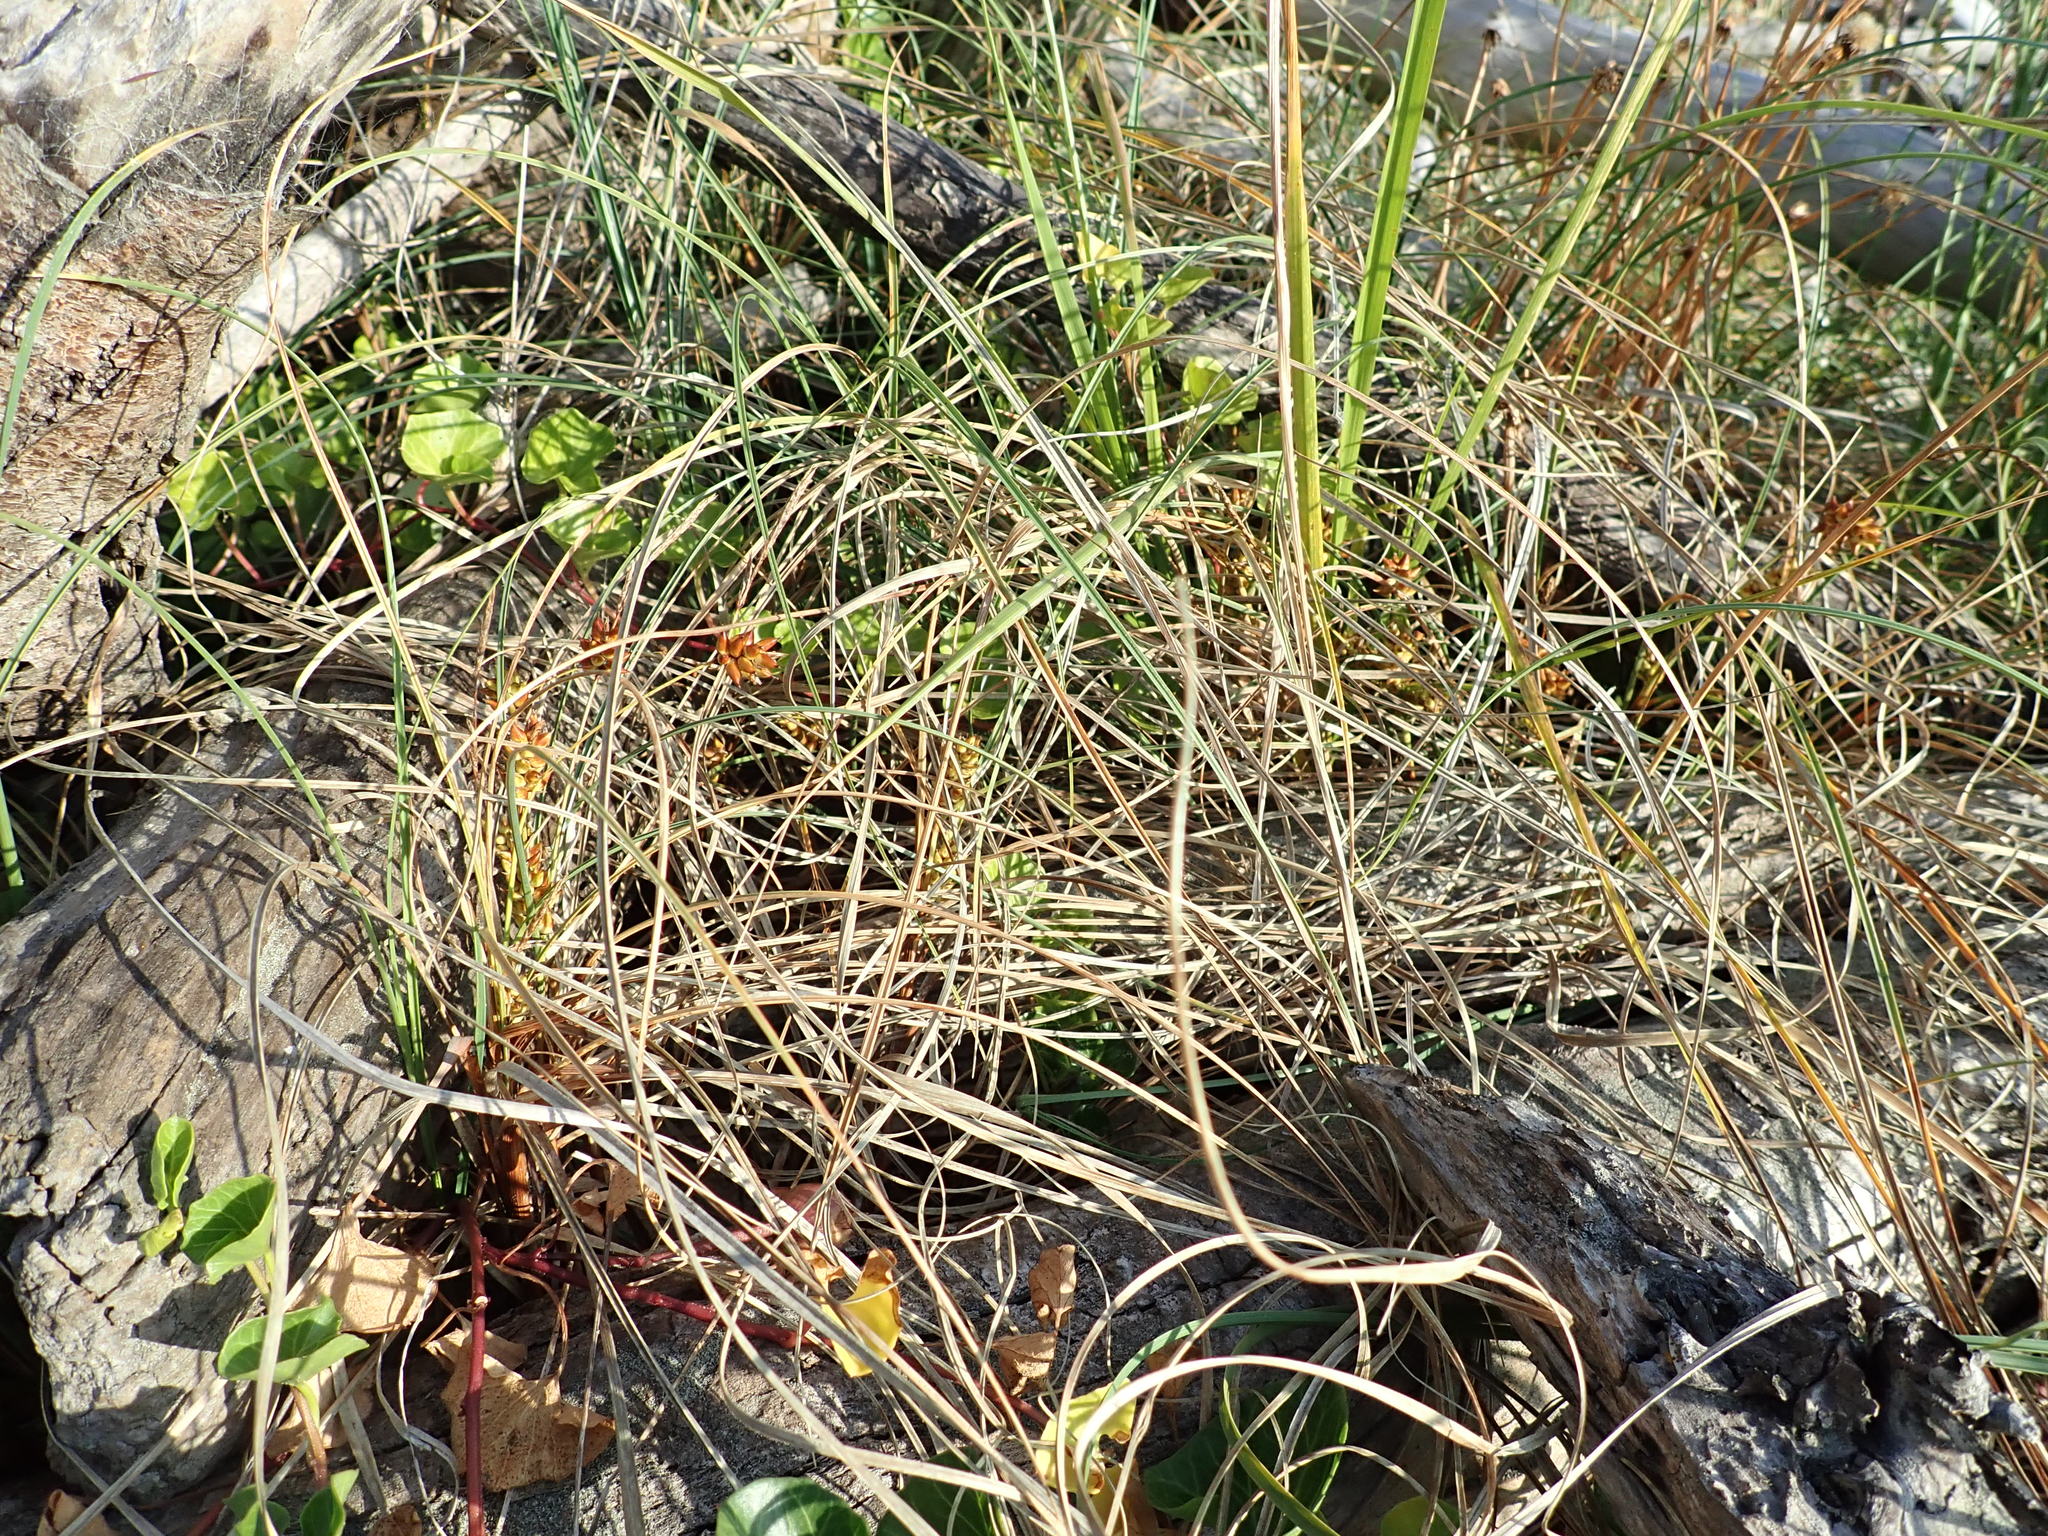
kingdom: Plantae
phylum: Tracheophyta
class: Liliopsida
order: Poales
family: Cyperaceae
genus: Carex
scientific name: Carex pumila
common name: Dwarf sedge
